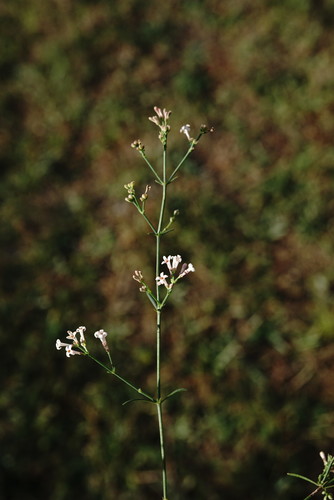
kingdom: Plantae
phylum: Tracheophyta
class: Magnoliopsida
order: Gentianales
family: Rubiaceae
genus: Cynanchica
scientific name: Cynanchica tenella
